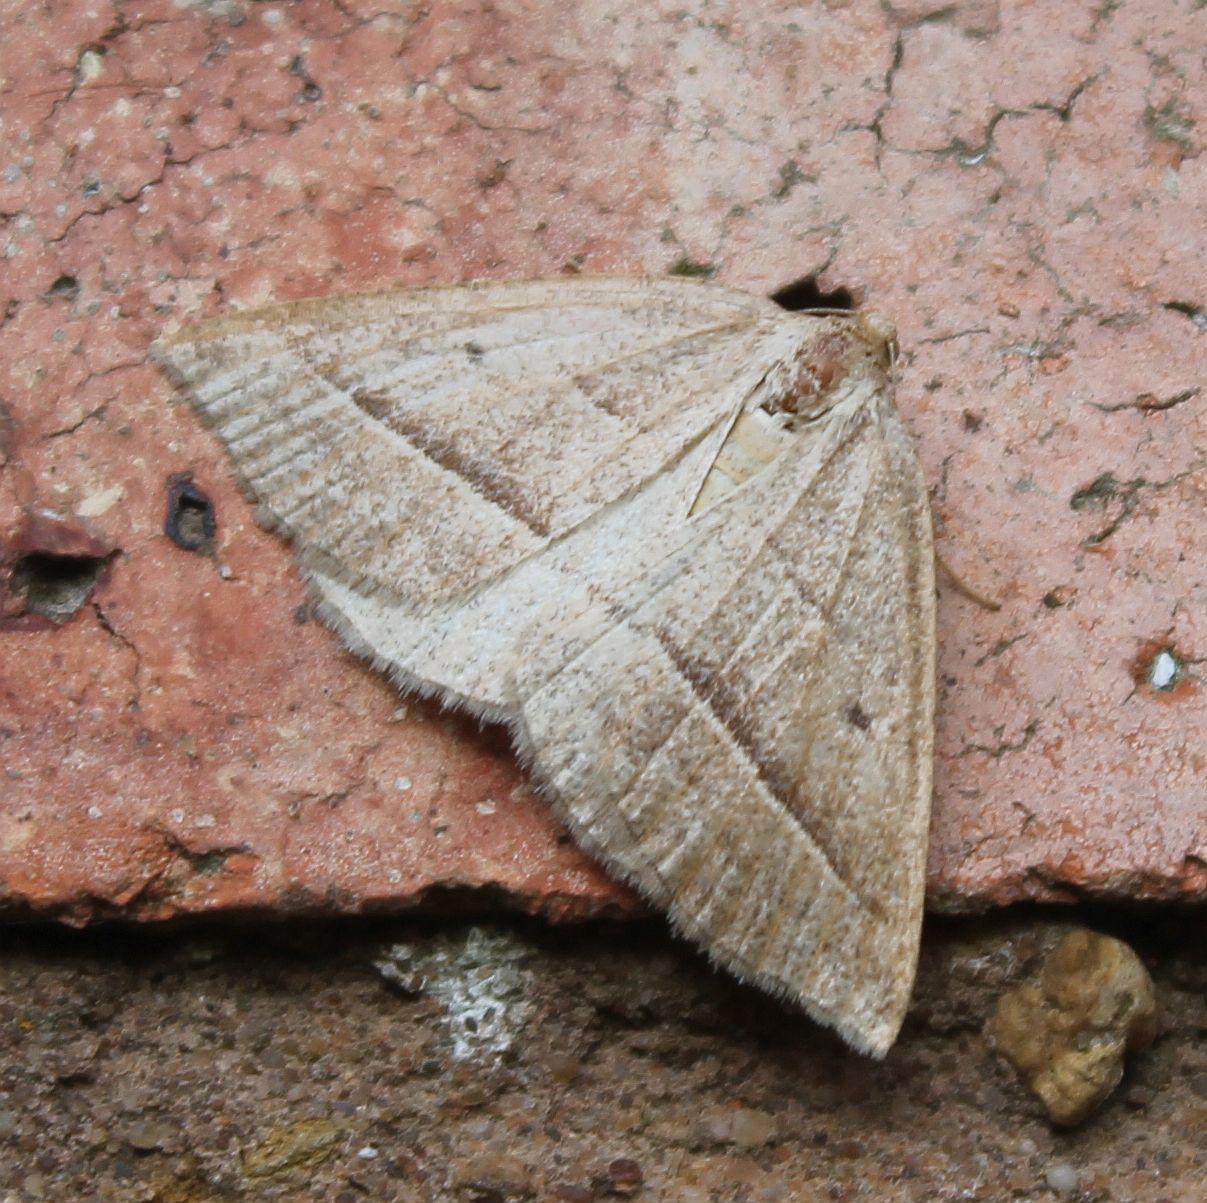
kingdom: Animalia
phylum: Arthropoda
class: Insecta
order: Lepidoptera
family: Pterophoridae
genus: Pterophorus
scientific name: Pterophorus Petrophora chlorosata
